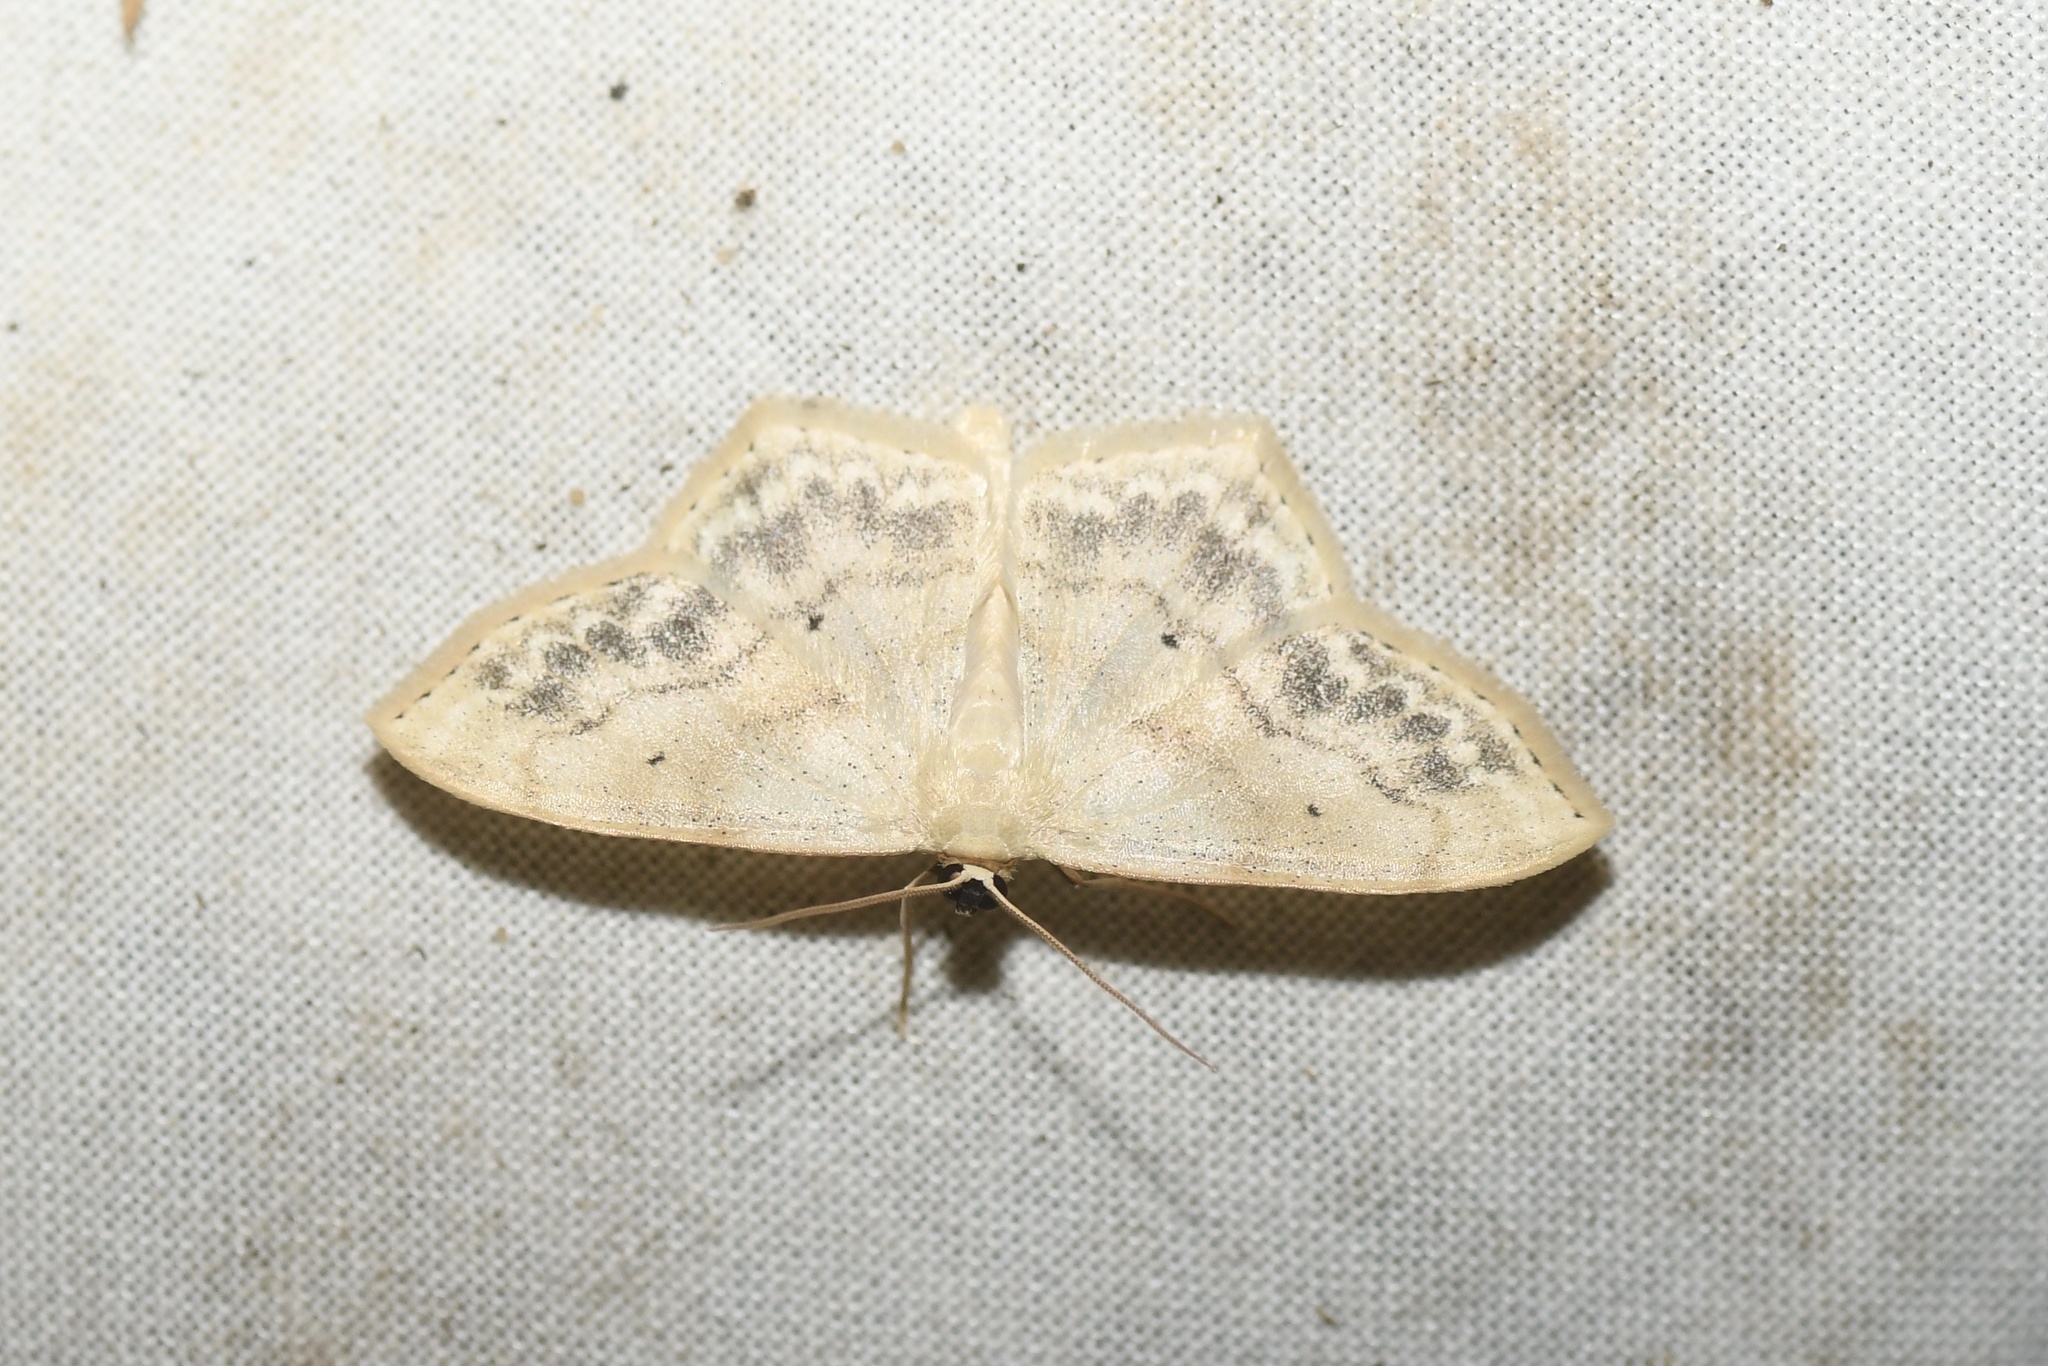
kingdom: Animalia
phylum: Arthropoda
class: Insecta
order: Lepidoptera
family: Geometridae
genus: Scopula
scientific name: Scopula limboundata
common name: Large lace border
